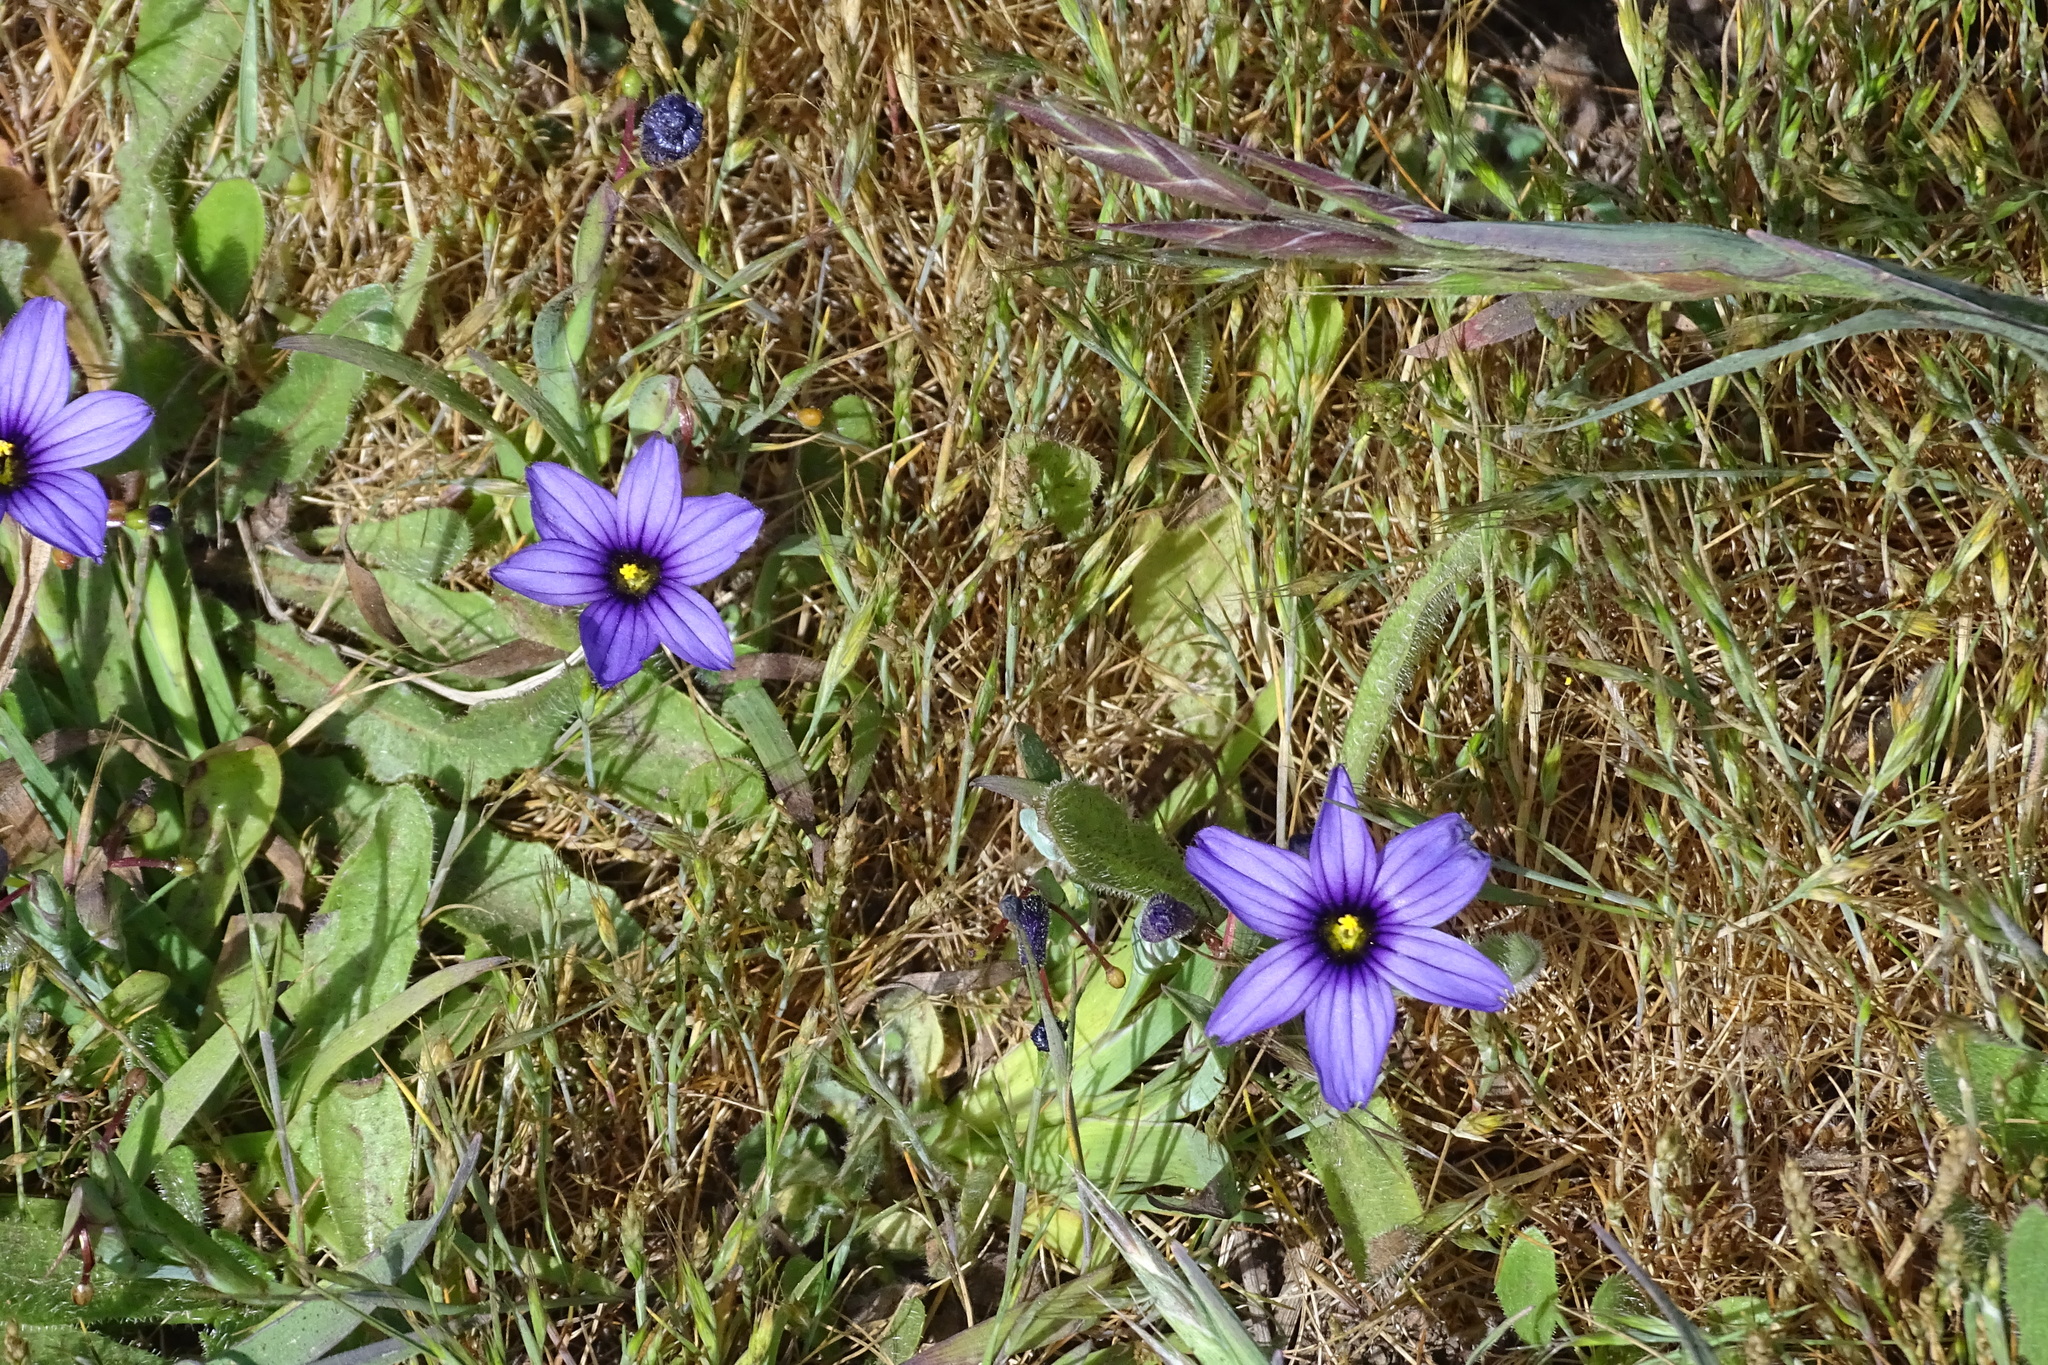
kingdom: Plantae
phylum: Tracheophyta
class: Liliopsida
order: Asparagales
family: Iridaceae
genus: Sisyrinchium
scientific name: Sisyrinchium bellum
